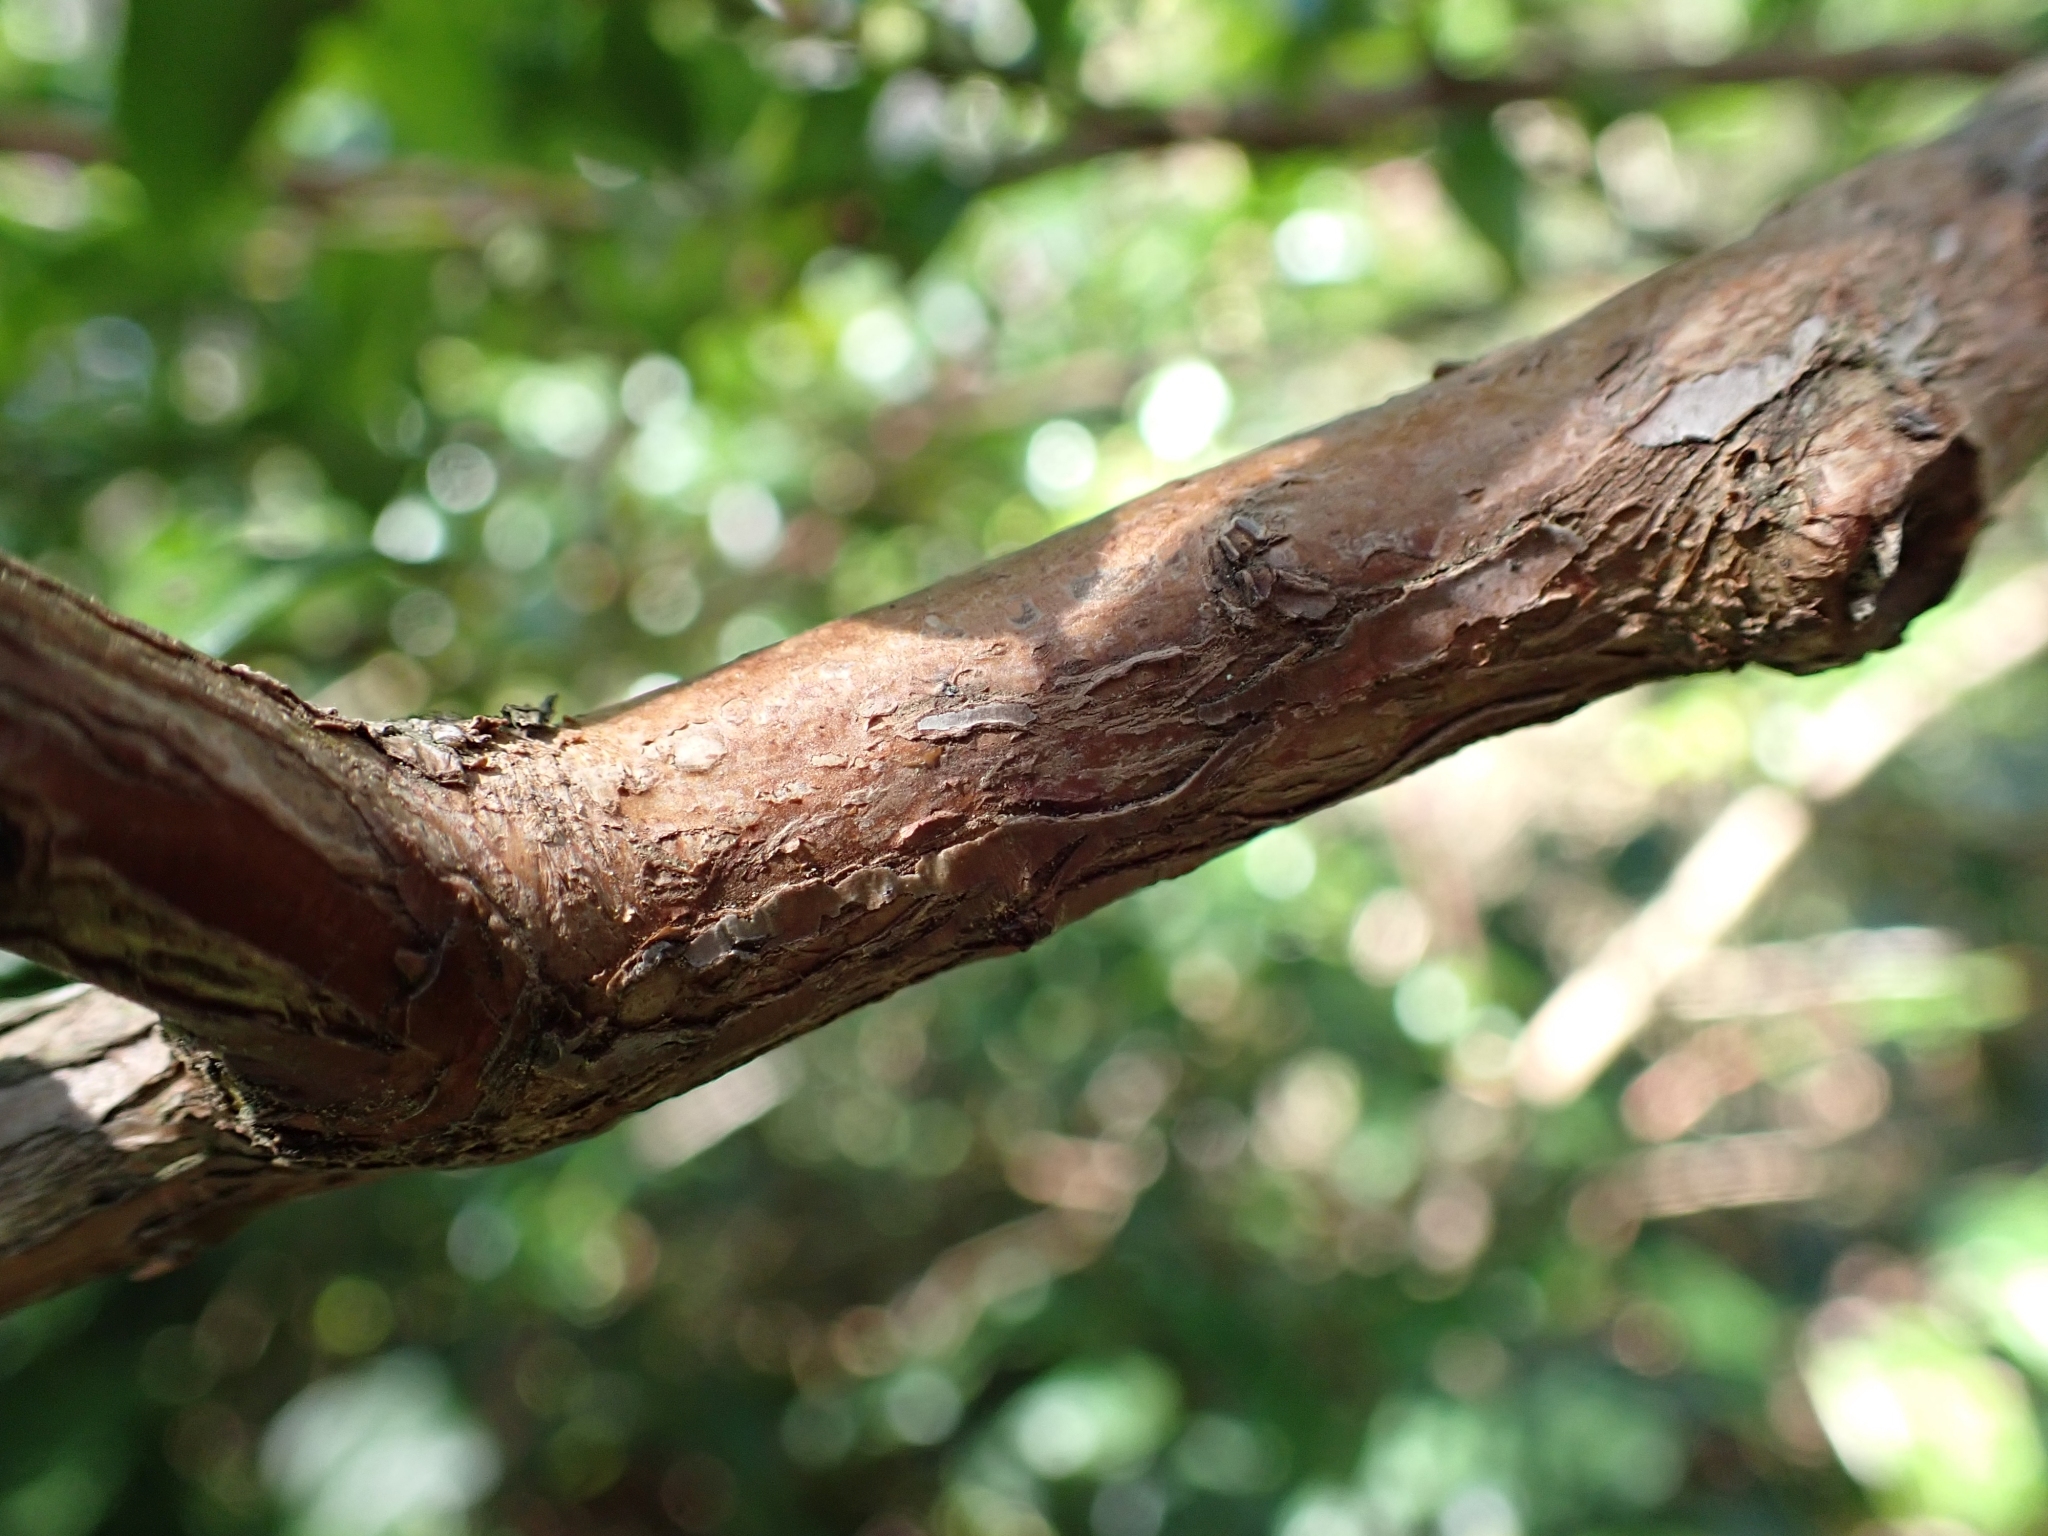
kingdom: Plantae
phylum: Tracheophyta
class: Magnoliopsida
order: Ericales
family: Ericaceae
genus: Vaccinium
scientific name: Vaccinium ovatum
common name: California-huckleberry
